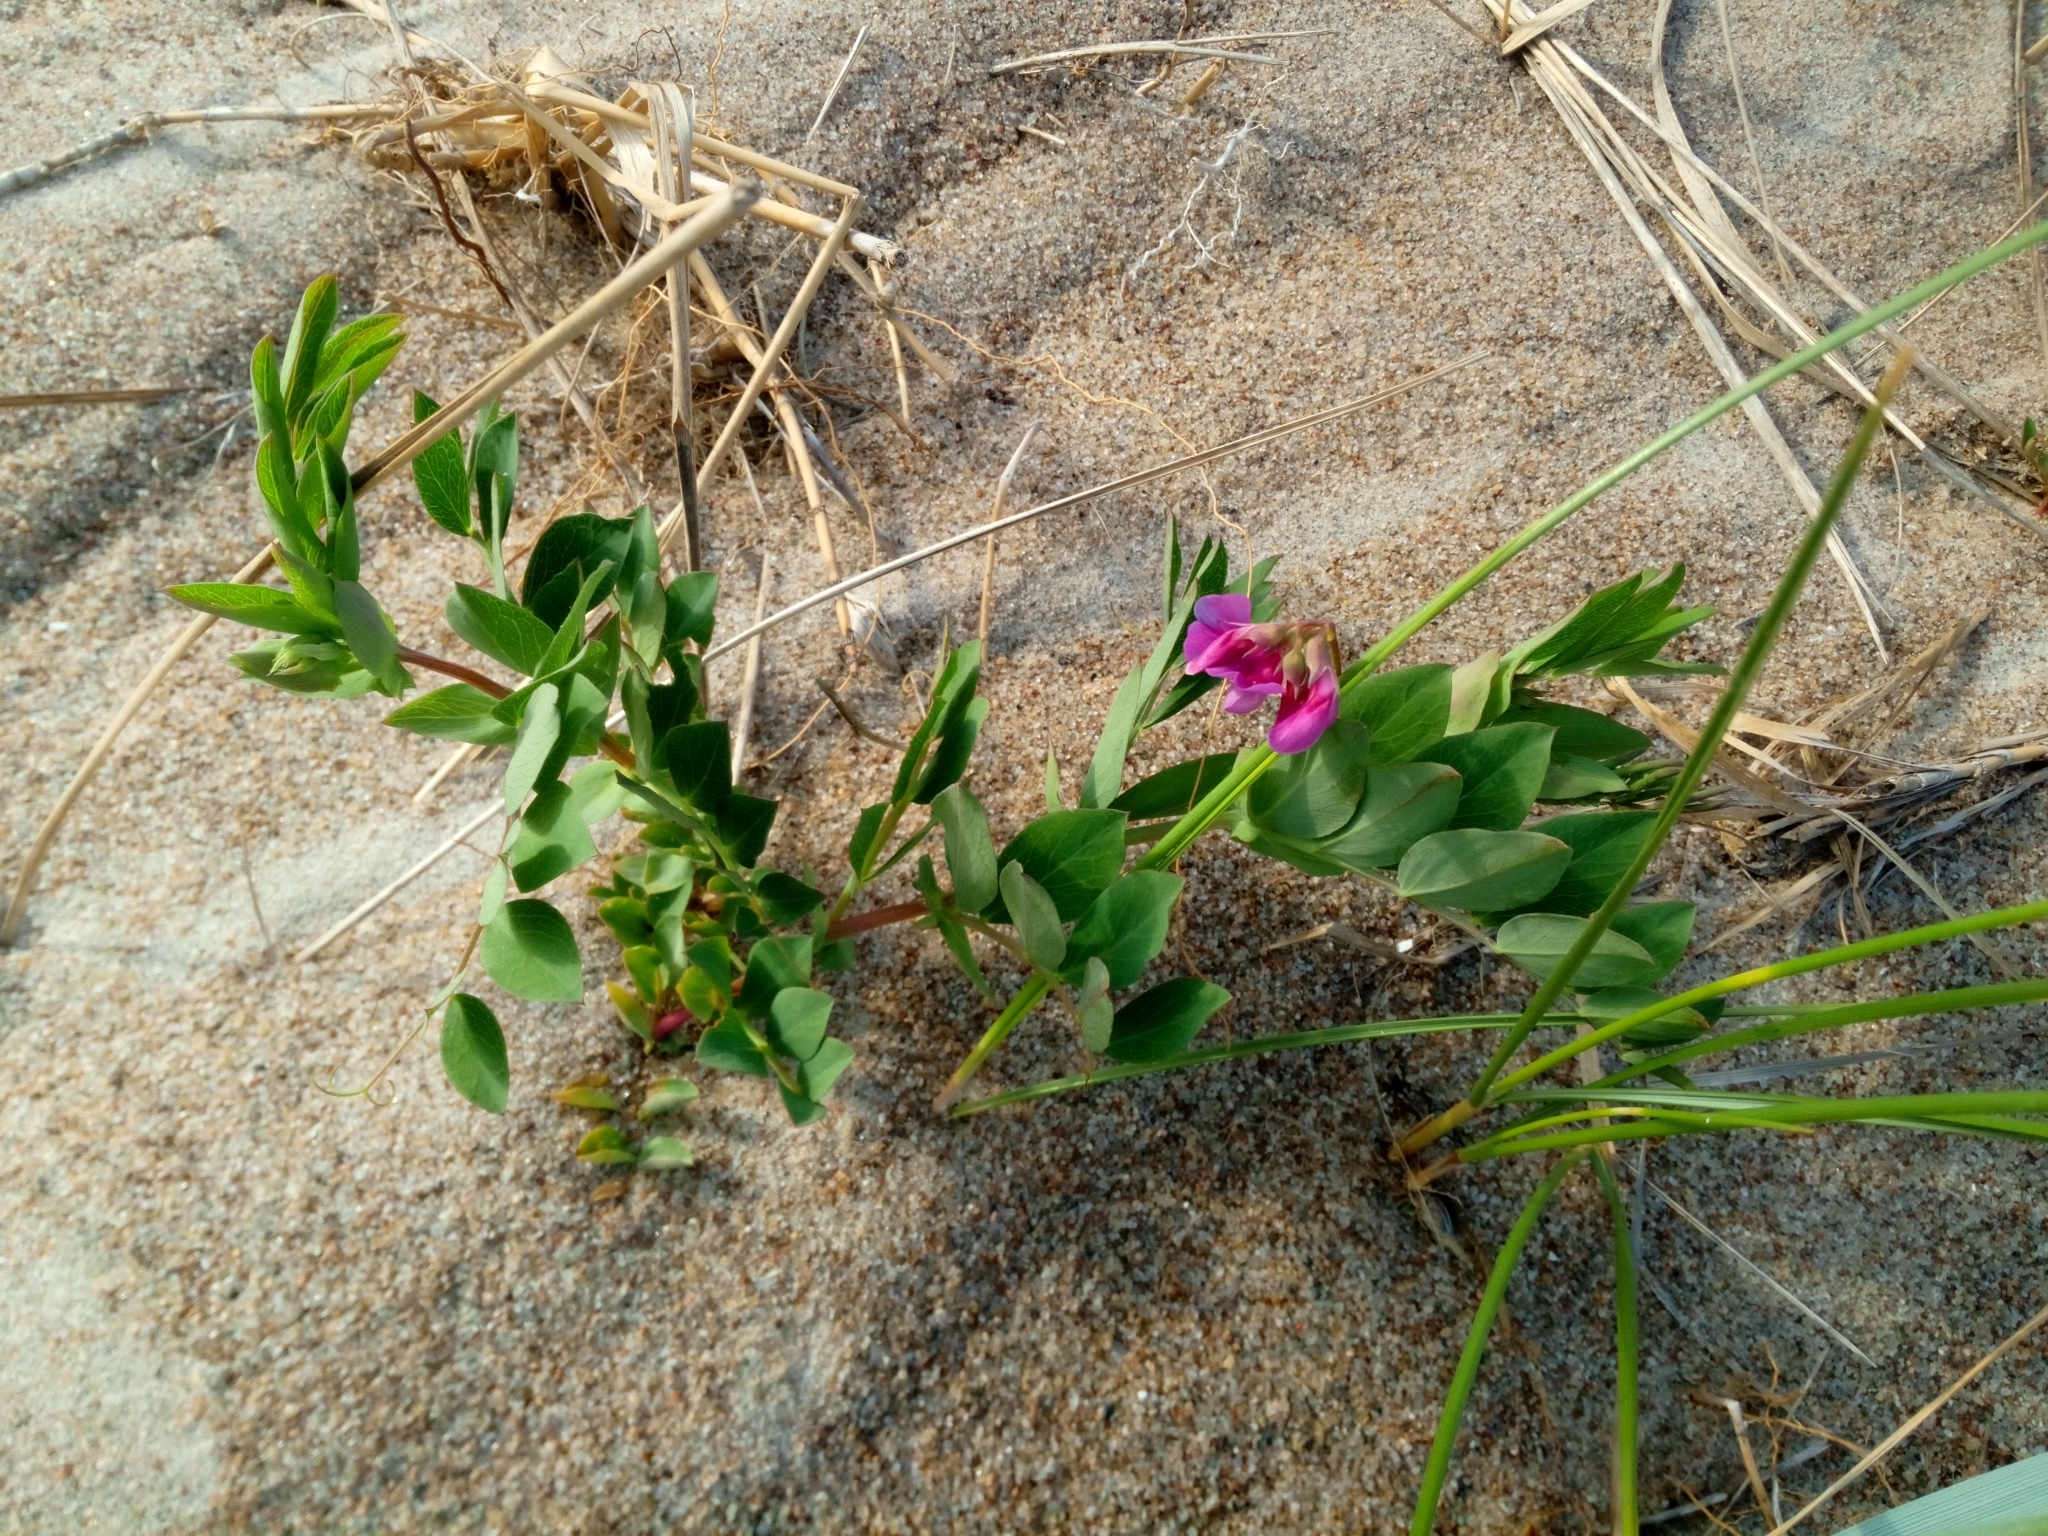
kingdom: Plantae
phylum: Tracheophyta
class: Magnoliopsida
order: Fabales
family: Fabaceae
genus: Lathyrus
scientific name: Lathyrus japonicus
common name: Sea pea
